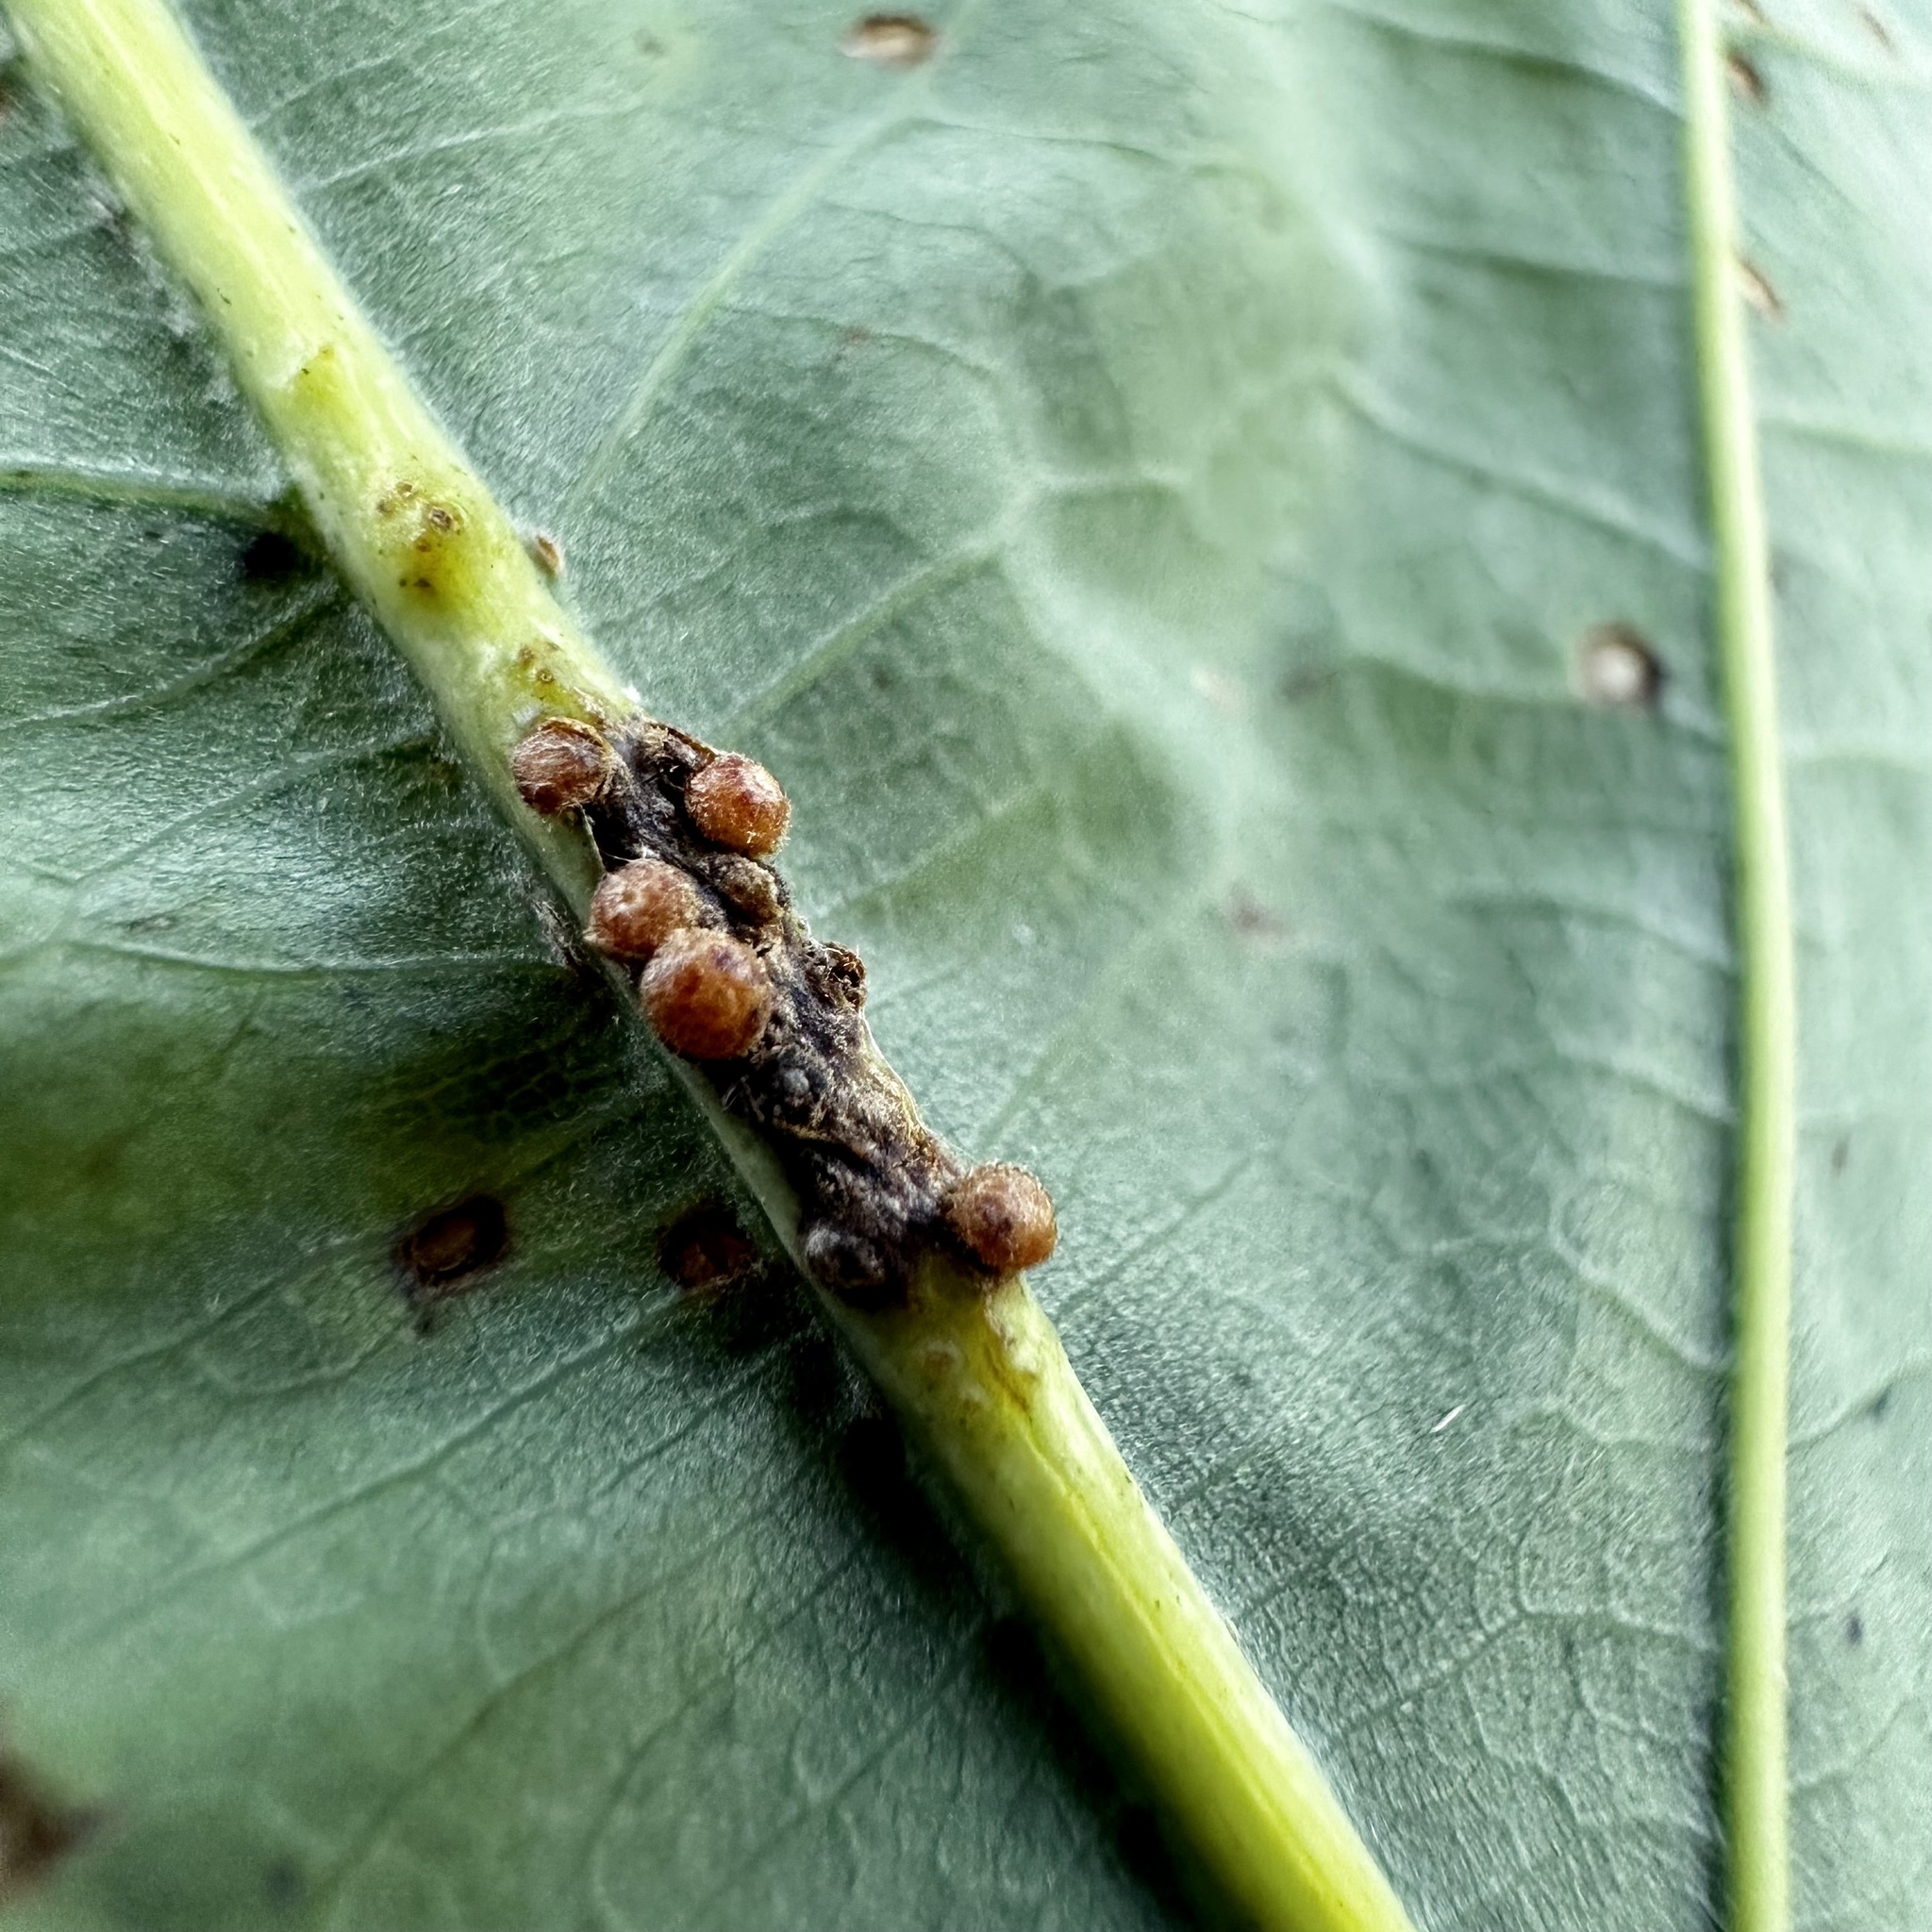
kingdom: Animalia
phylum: Arthropoda
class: Insecta
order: Hymenoptera
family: Cynipidae
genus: Andricus
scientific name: Andricus
